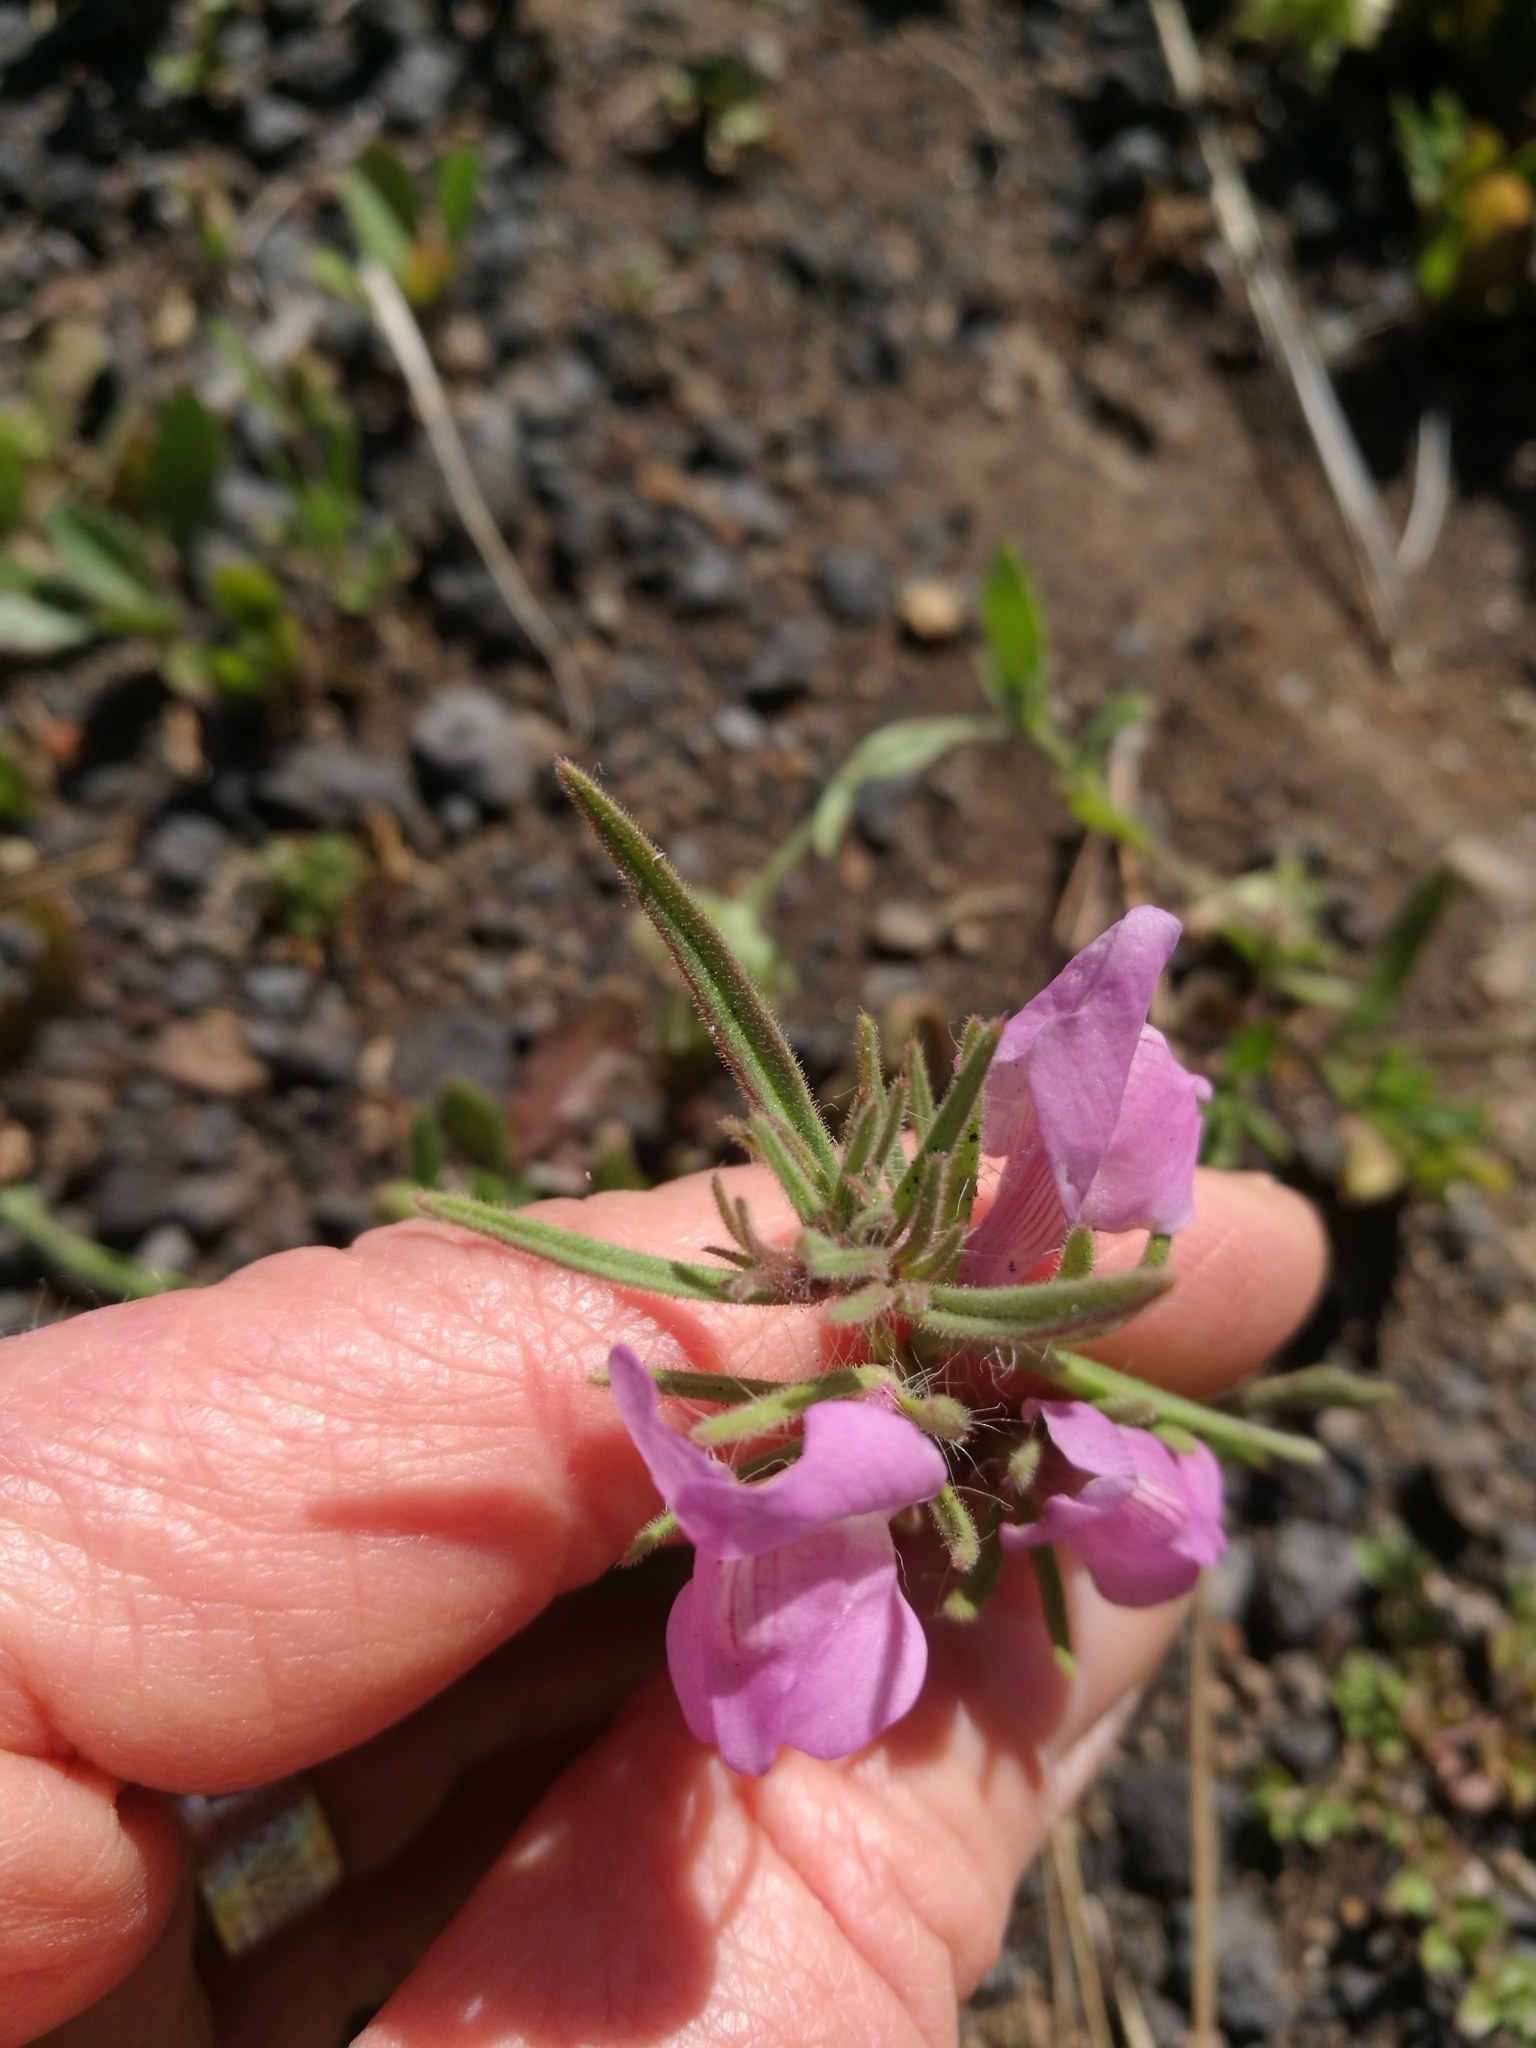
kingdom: Plantae
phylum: Tracheophyta
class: Magnoliopsida
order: Lamiales
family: Plantaginaceae
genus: Misopates
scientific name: Misopates orontium
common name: Weasel's-snout
